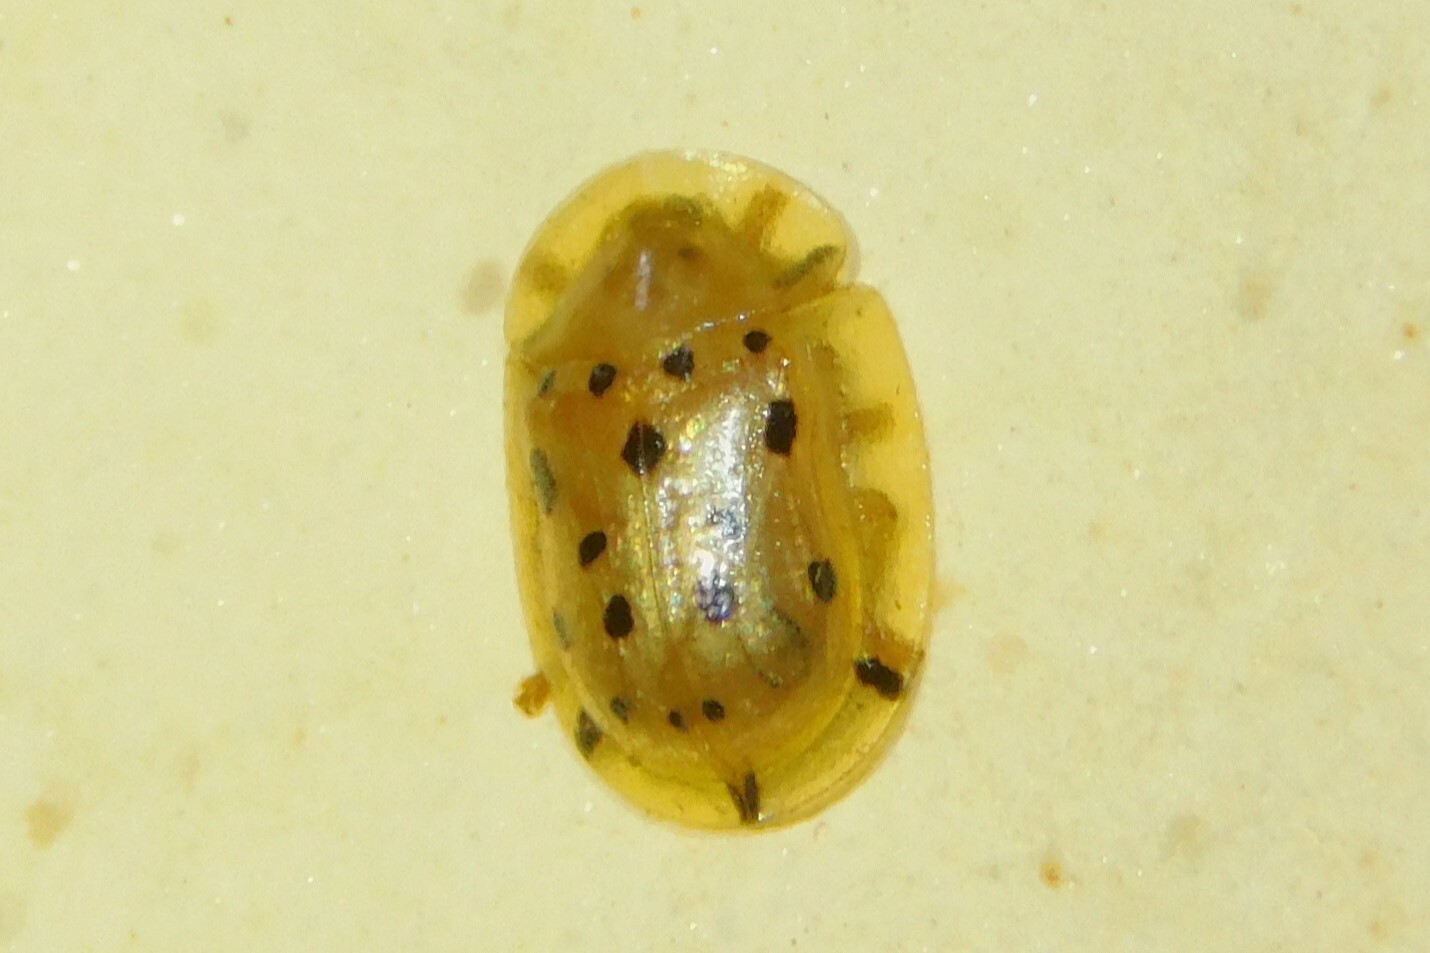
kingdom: Animalia
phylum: Arthropoda
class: Insecta
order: Coleoptera
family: Chrysomelidae
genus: Aspidimorpha
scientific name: Aspidimorpha nigromaculata
